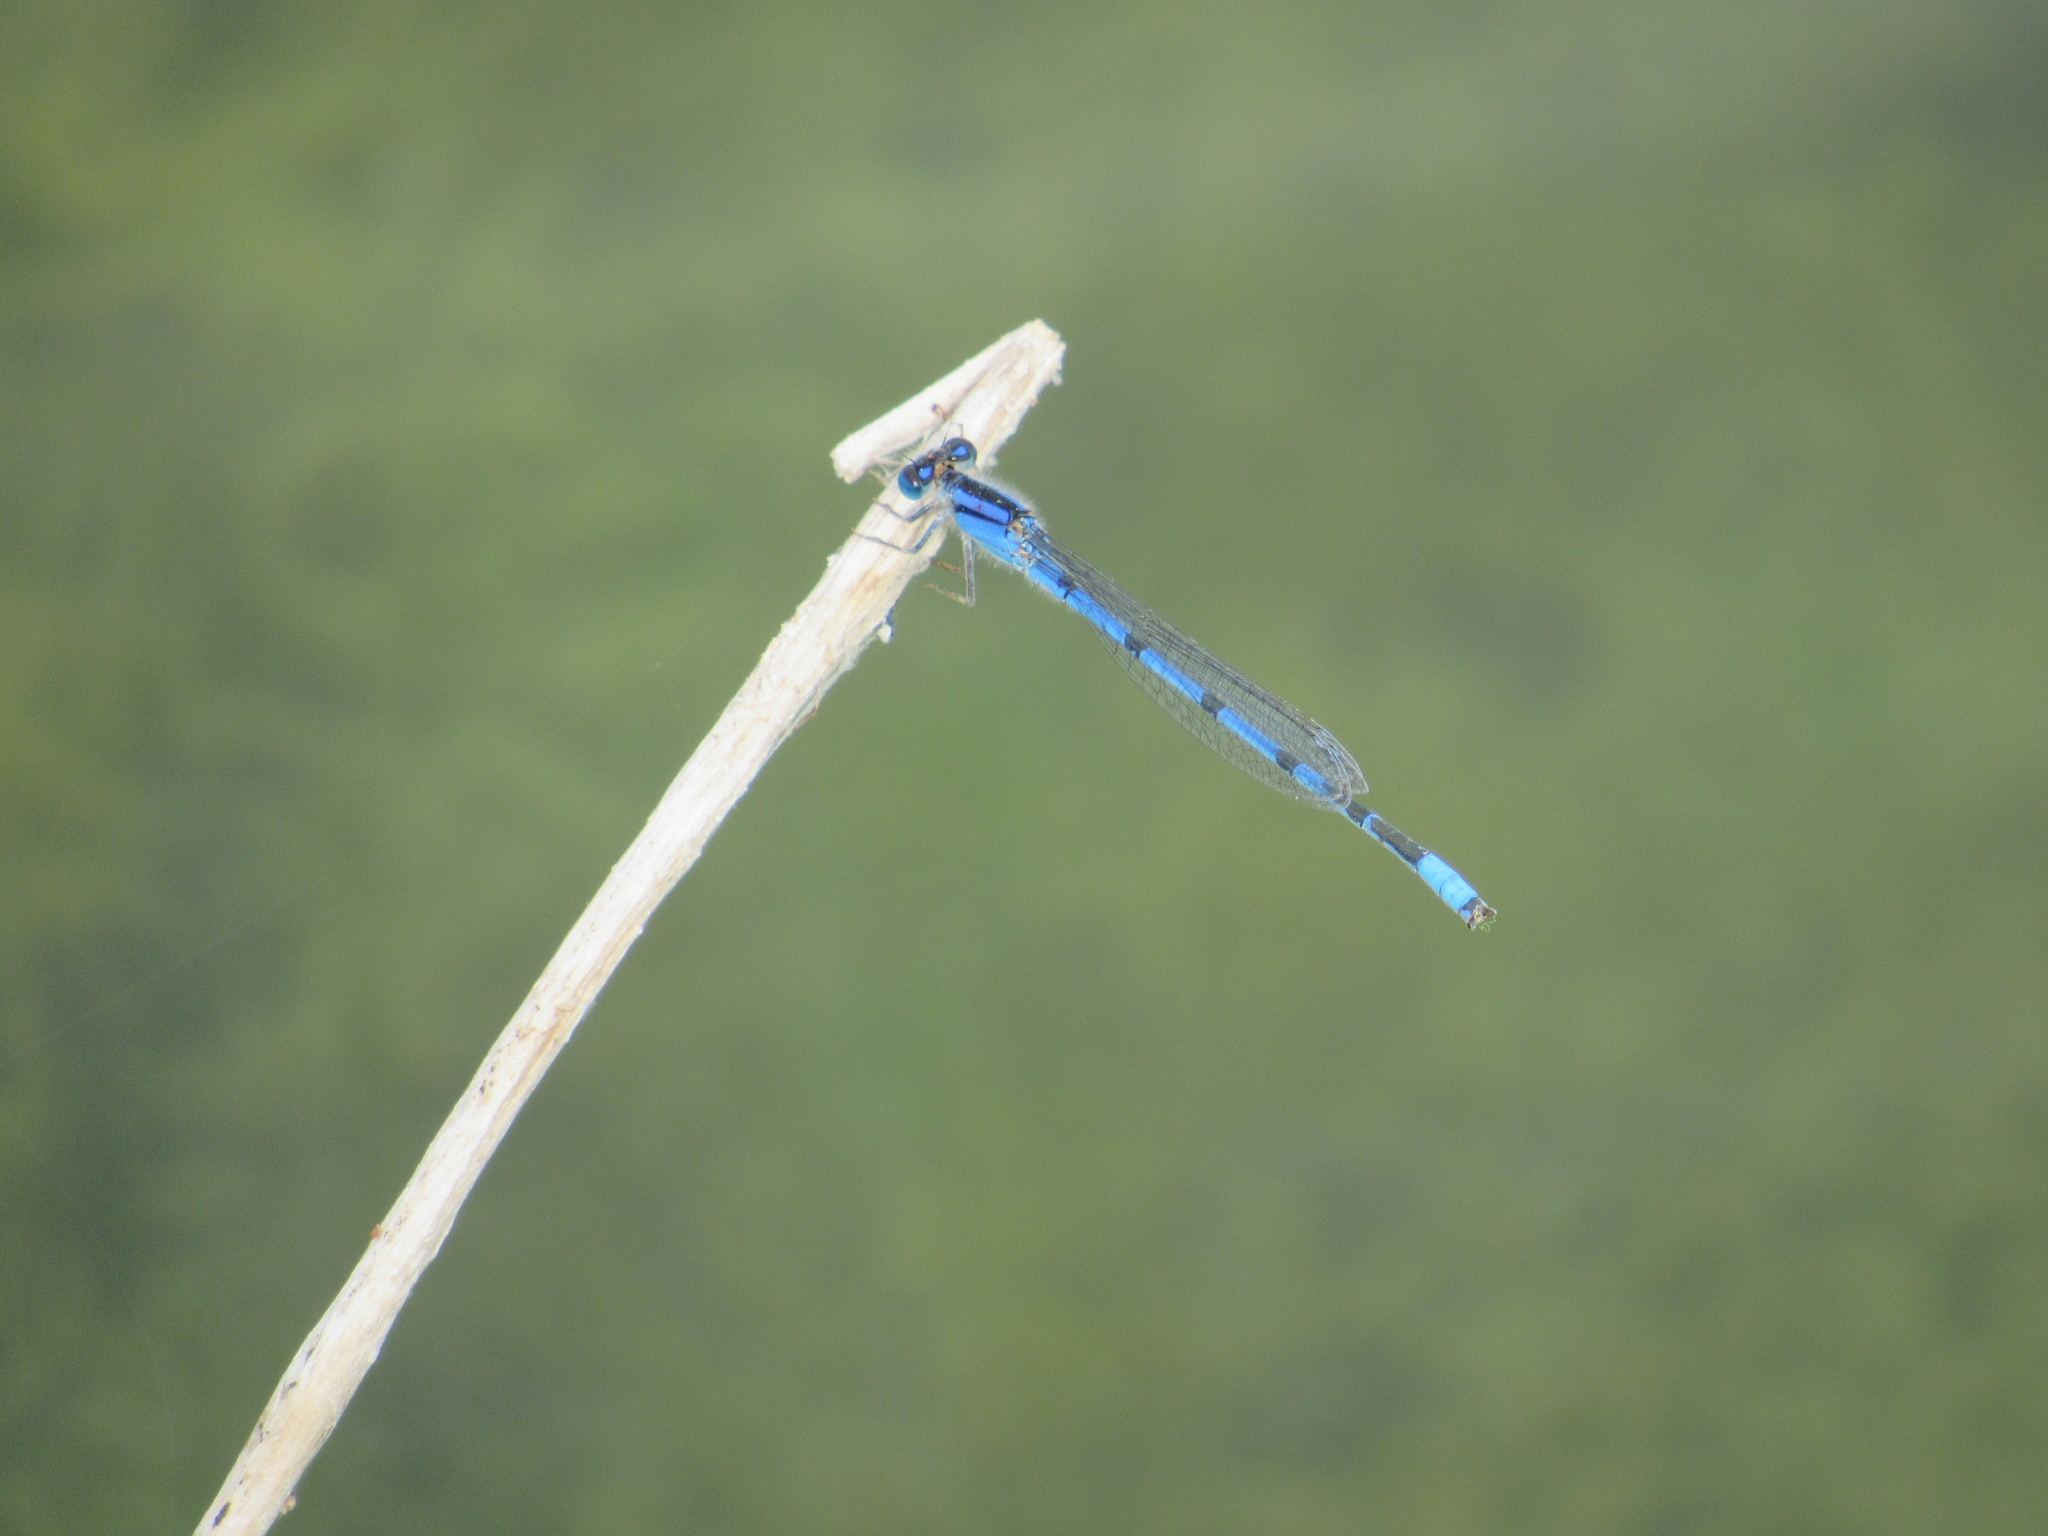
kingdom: Animalia
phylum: Arthropoda
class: Insecta
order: Odonata
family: Coenagrionidae
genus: Enallagma
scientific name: Enallagma civile
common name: Damselfly
